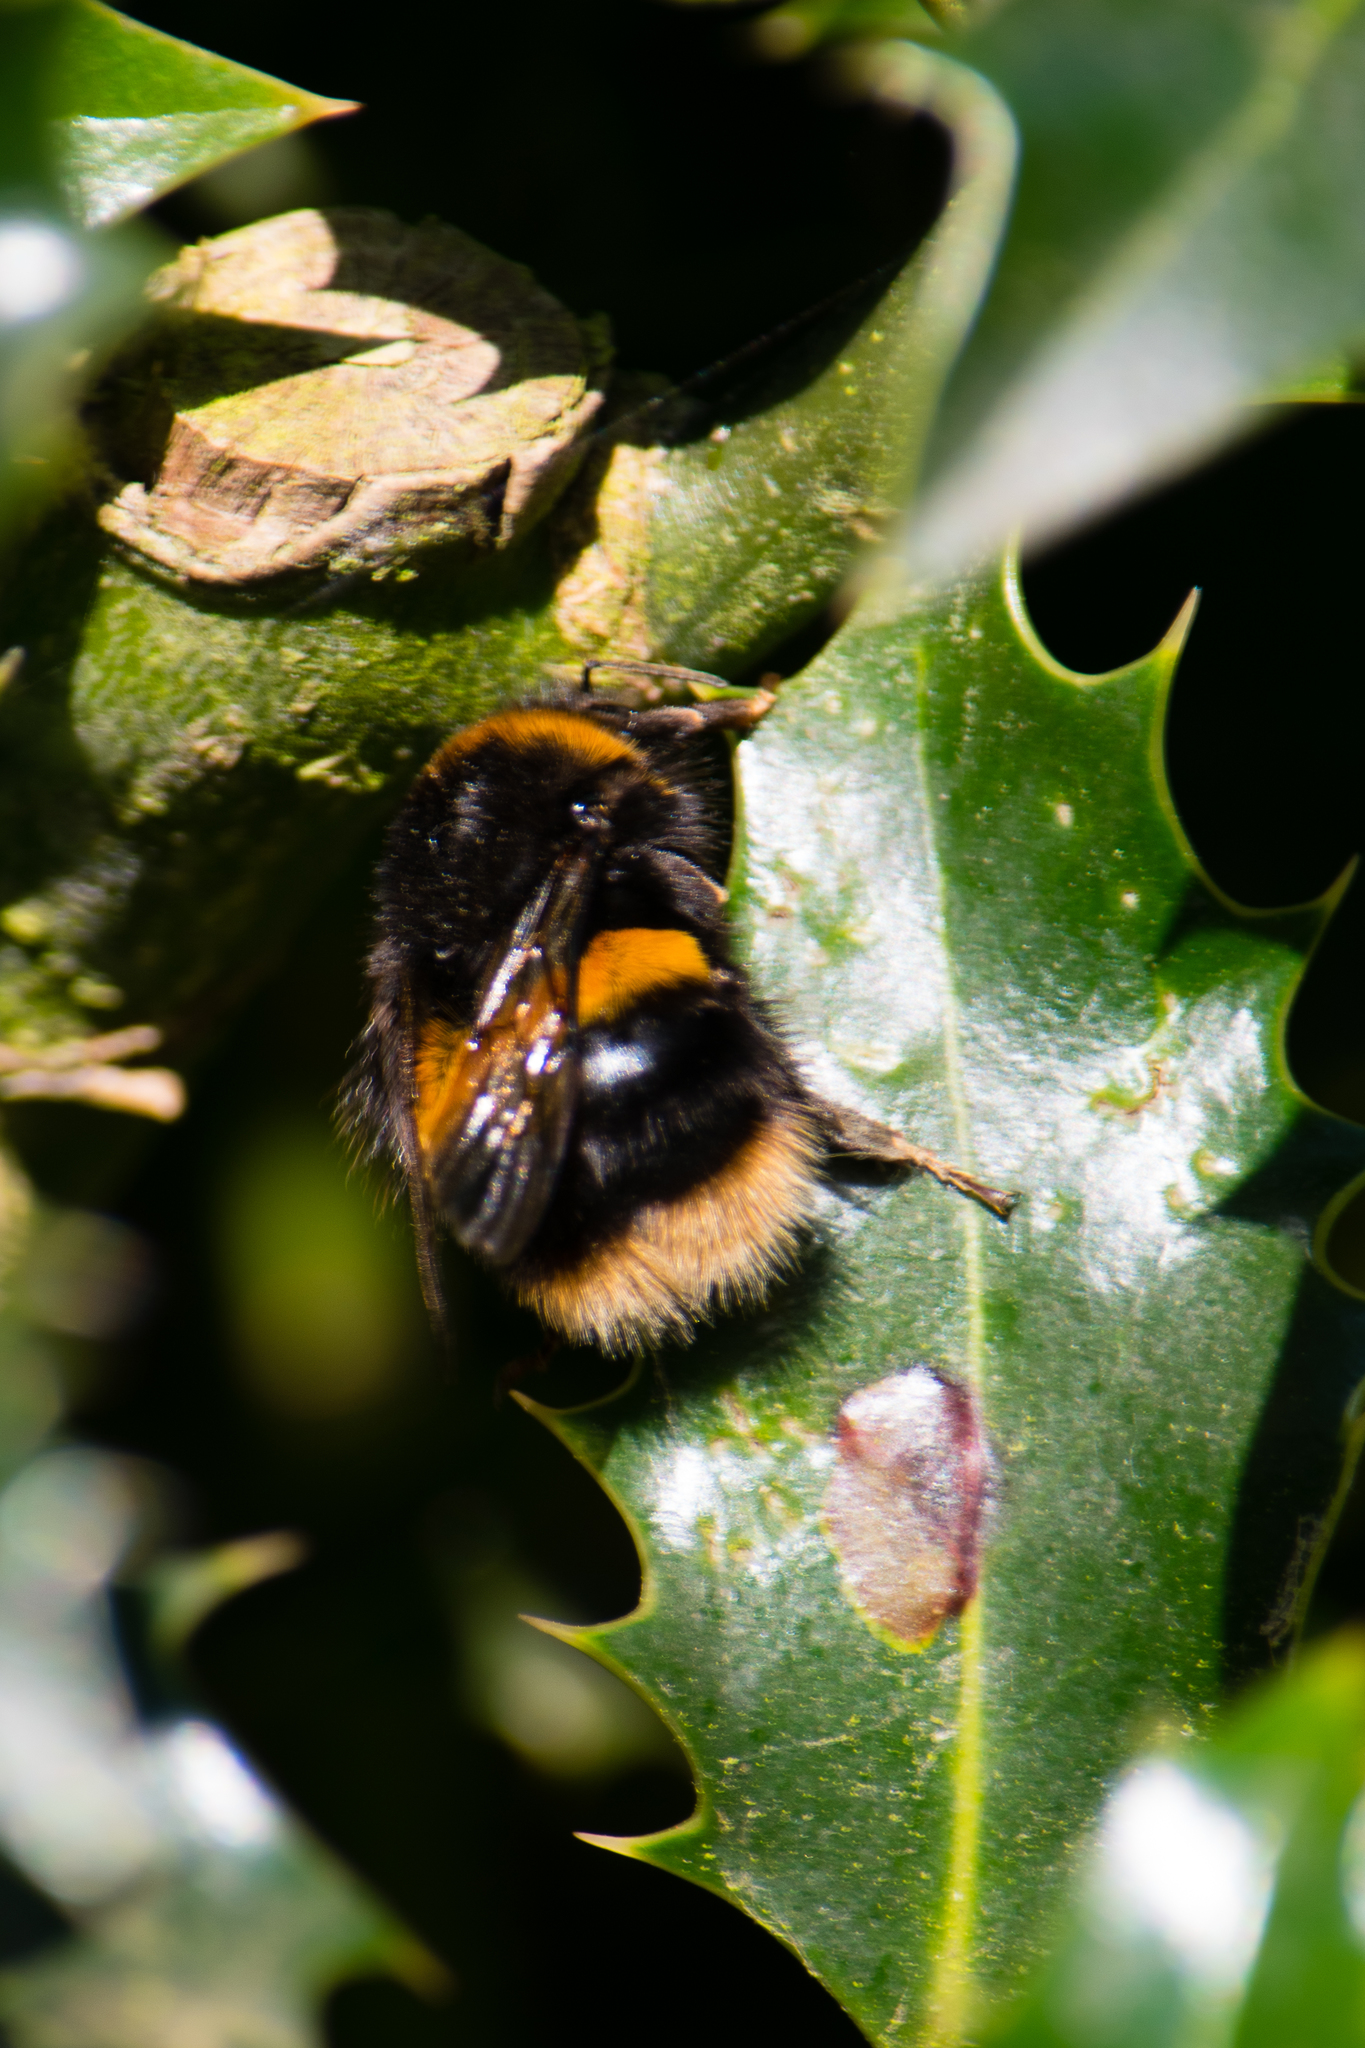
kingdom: Animalia
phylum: Arthropoda
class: Insecta
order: Hymenoptera
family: Apidae
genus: Bombus
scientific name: Bombus terrestris
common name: Buff-tailed bumblebee
